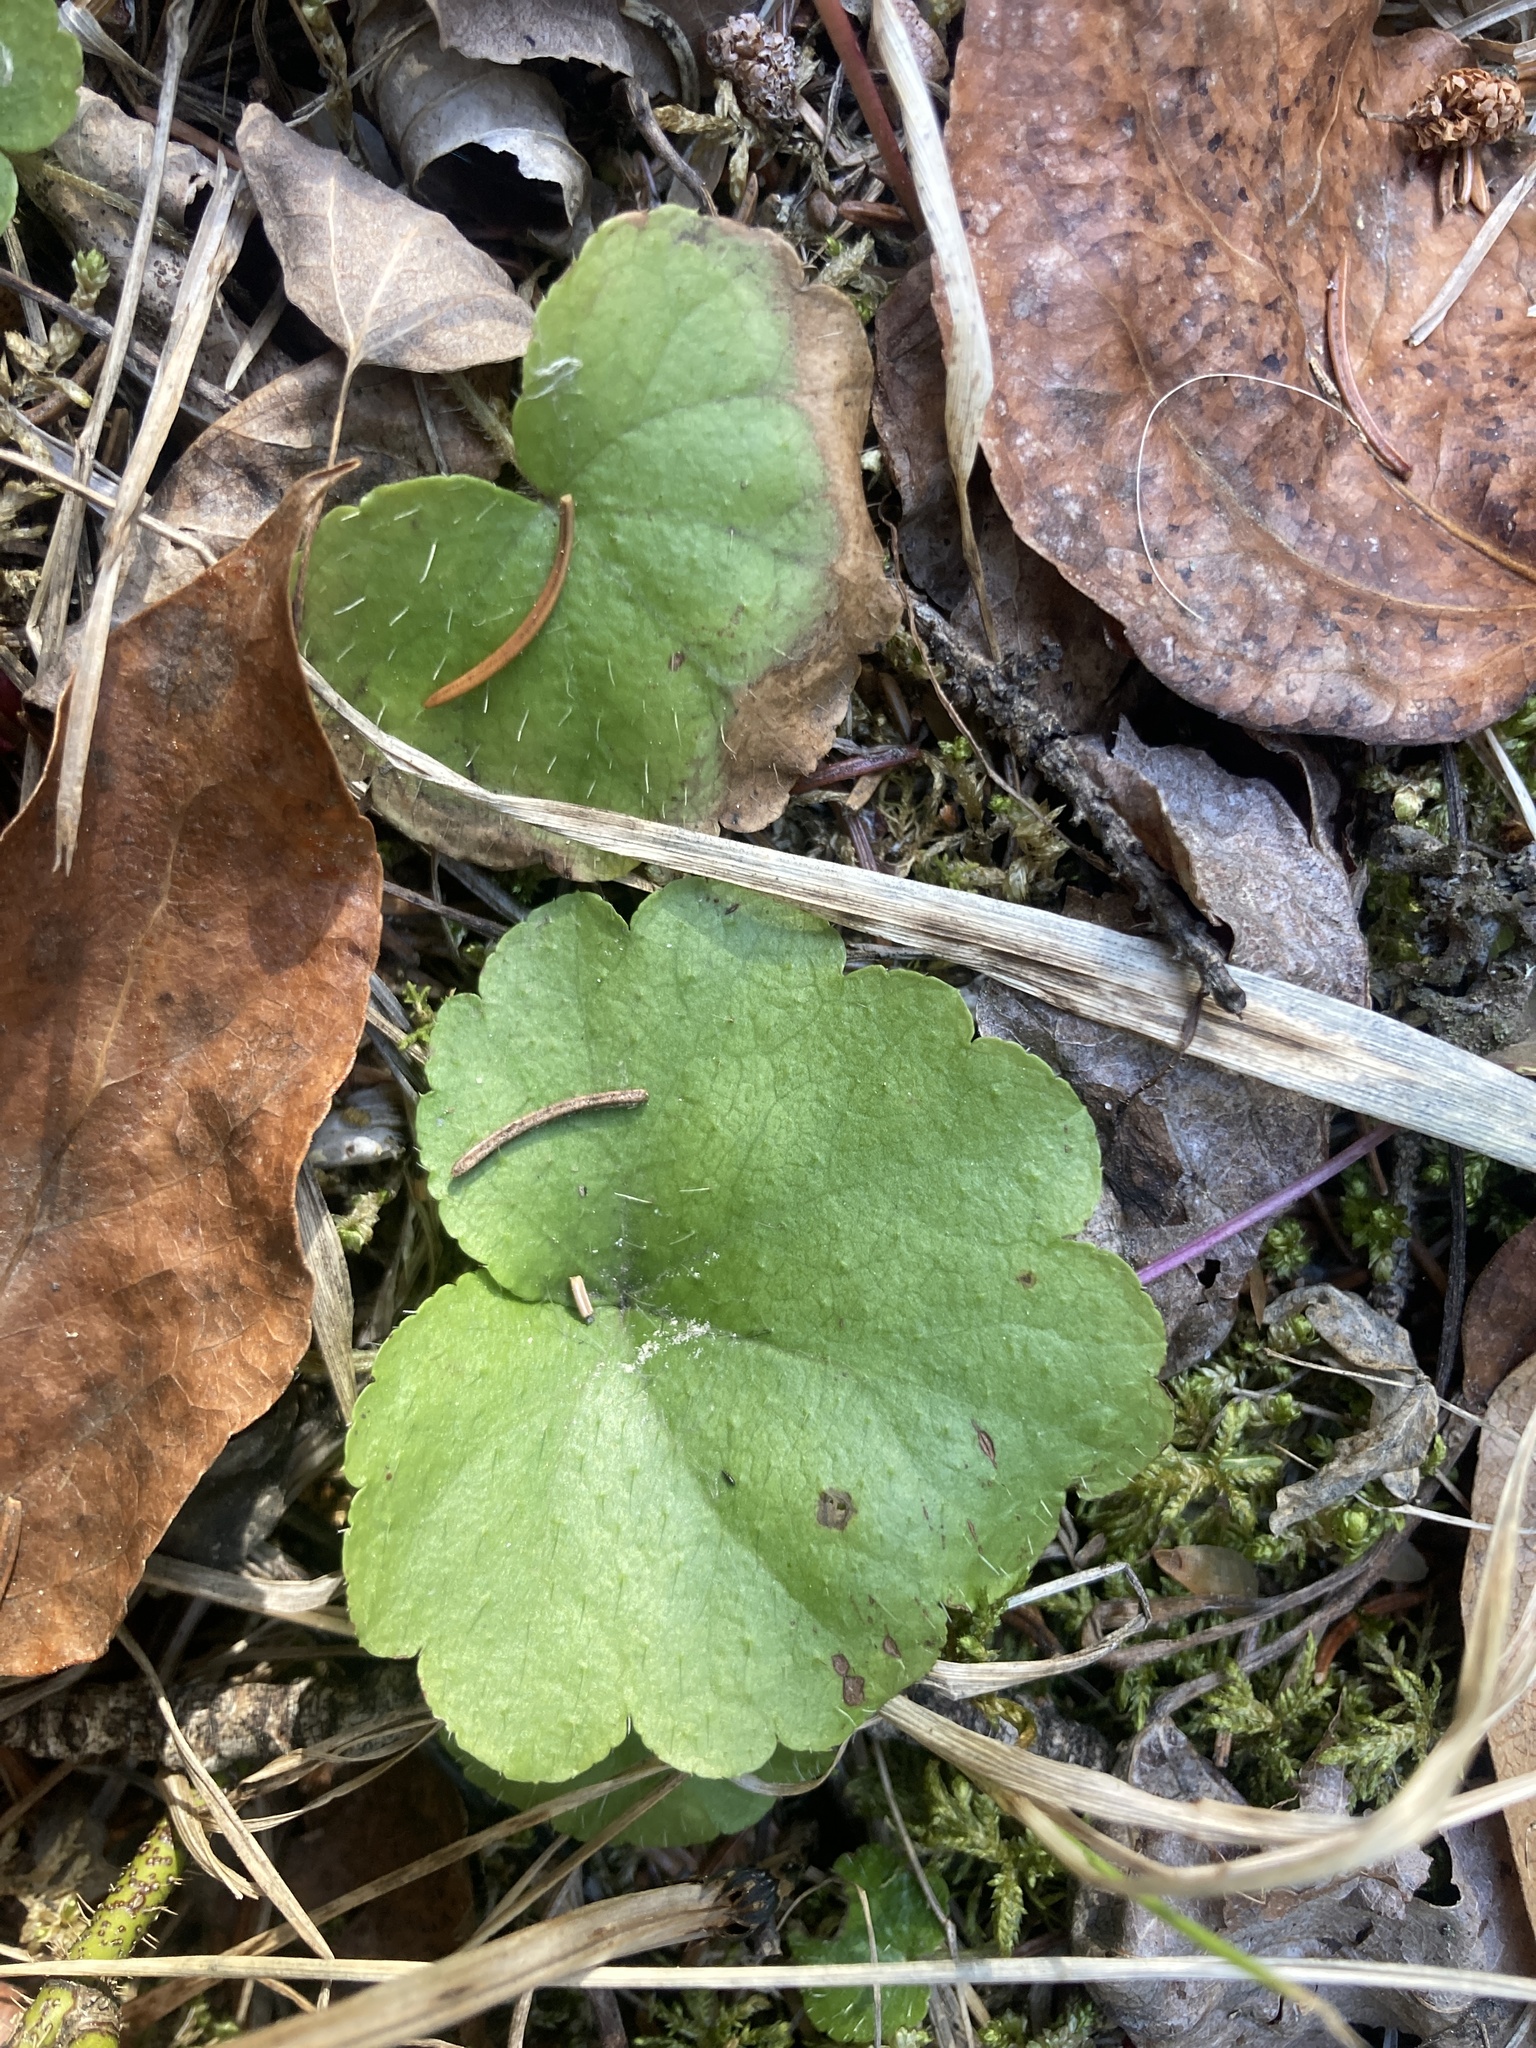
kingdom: Plantae
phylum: Tracheophyta
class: Magnoliopsida
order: Saxifragales
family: Saxifragaceae
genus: Mitella
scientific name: Mitella nuda
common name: Bare-stemmed bishop's-cap
